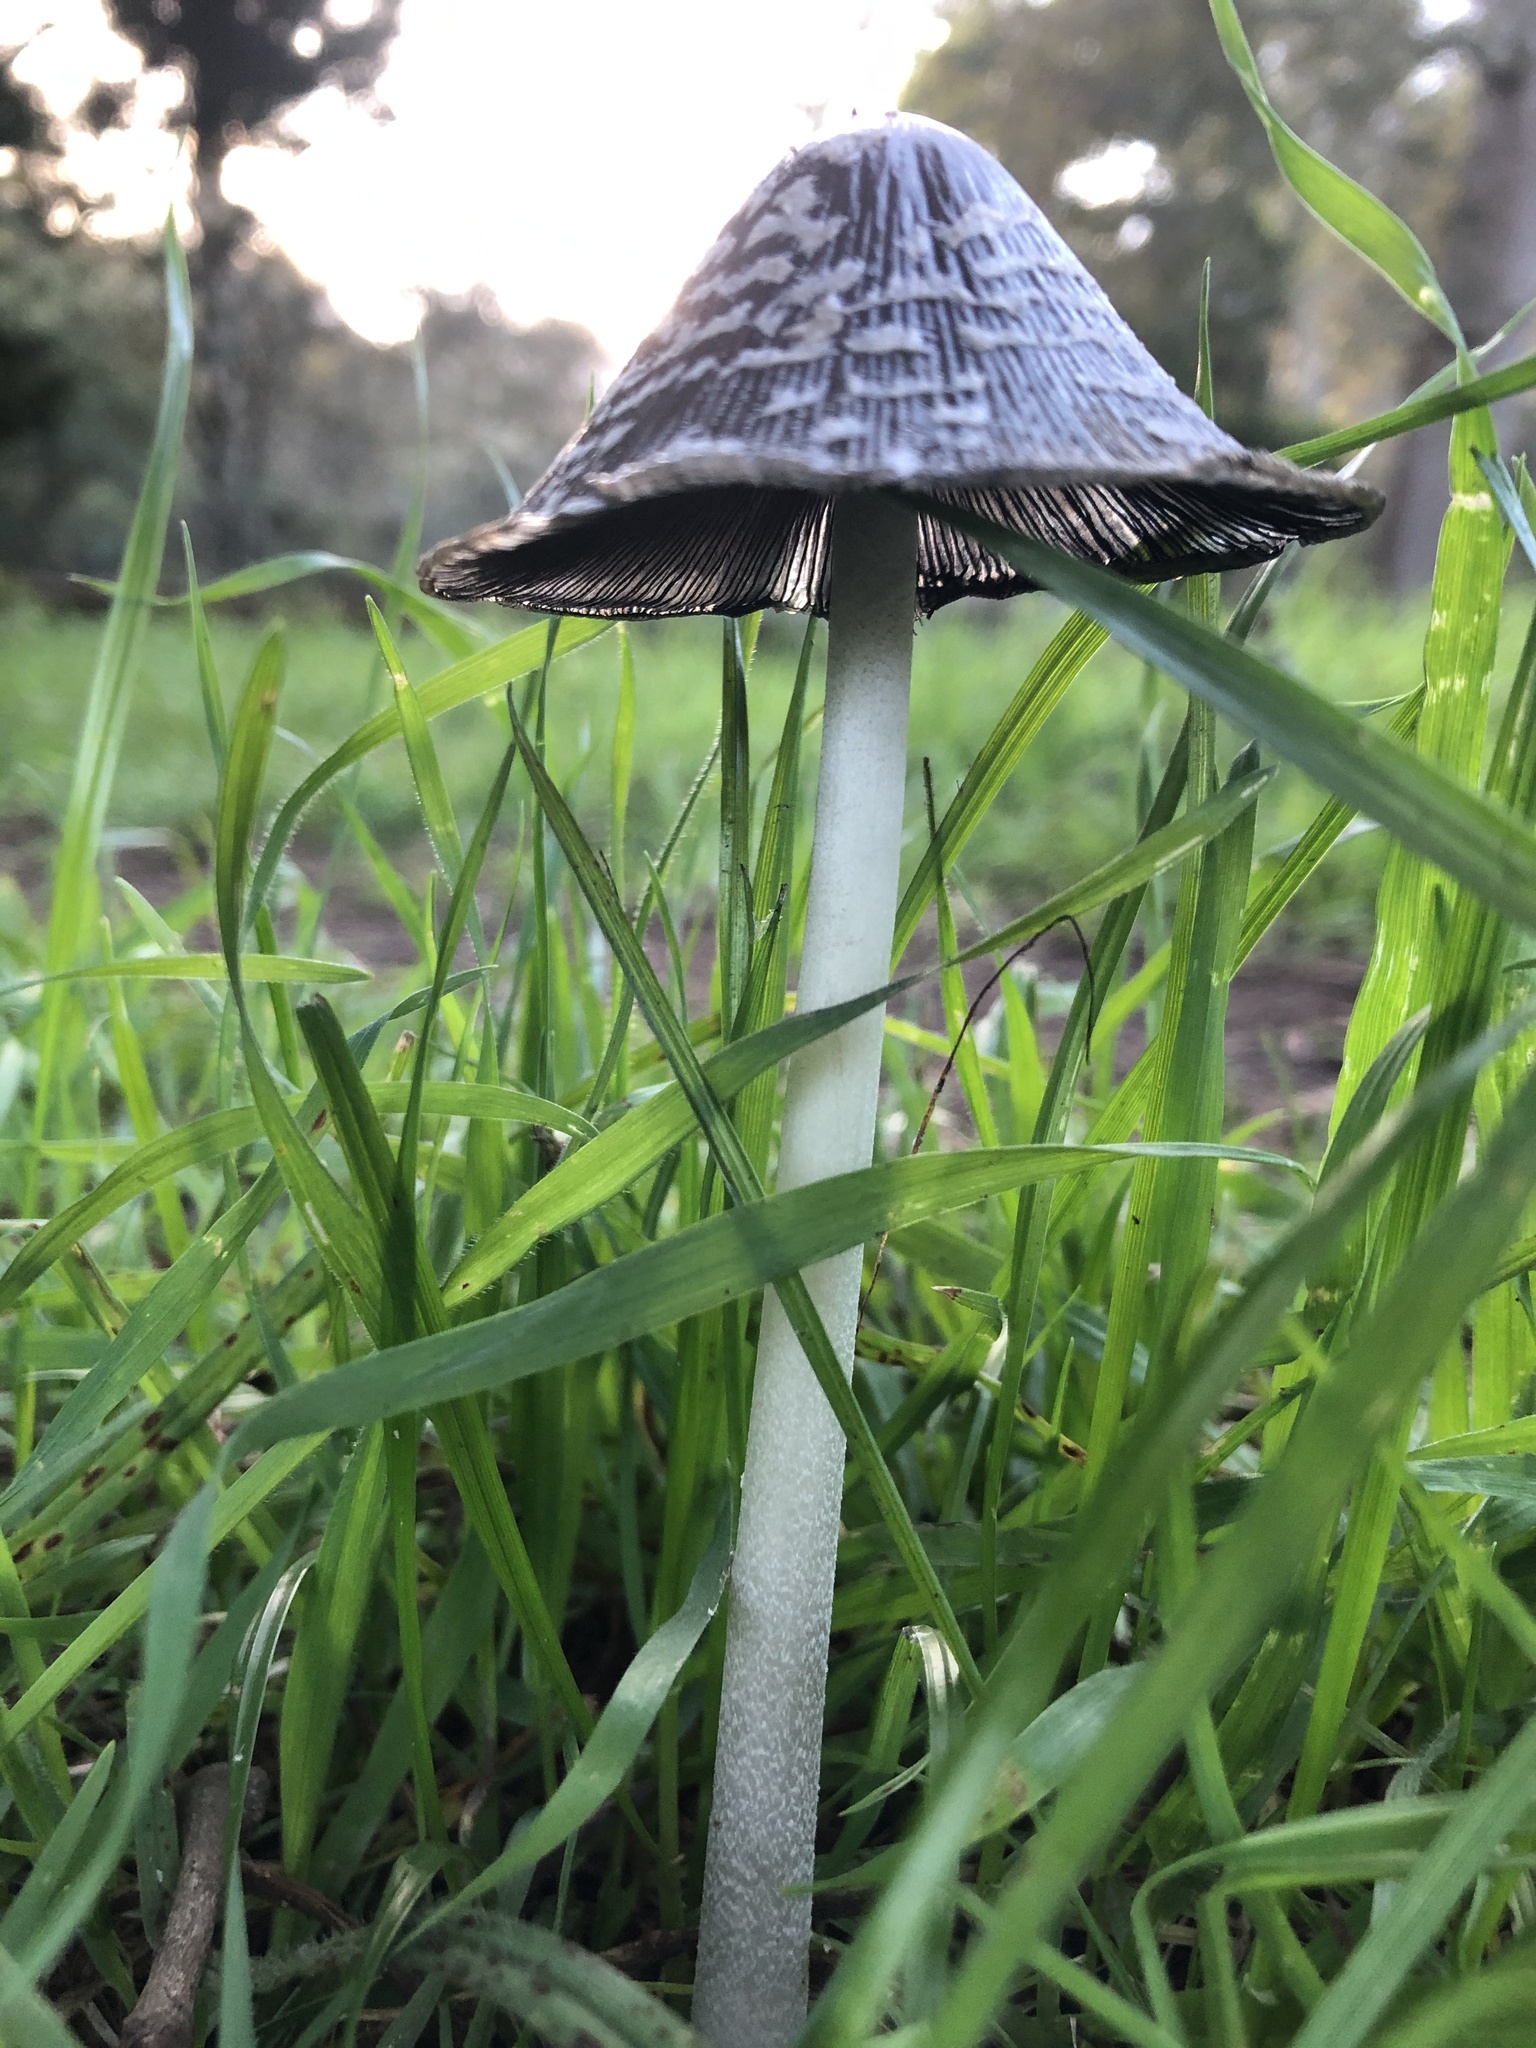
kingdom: Fungi
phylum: Basidiomycota
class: Agaricomycetes
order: Agaricales
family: Psathyrellaceae
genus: Coprinopsis
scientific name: Coprinopsis picacea
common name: Magpie inkcap
